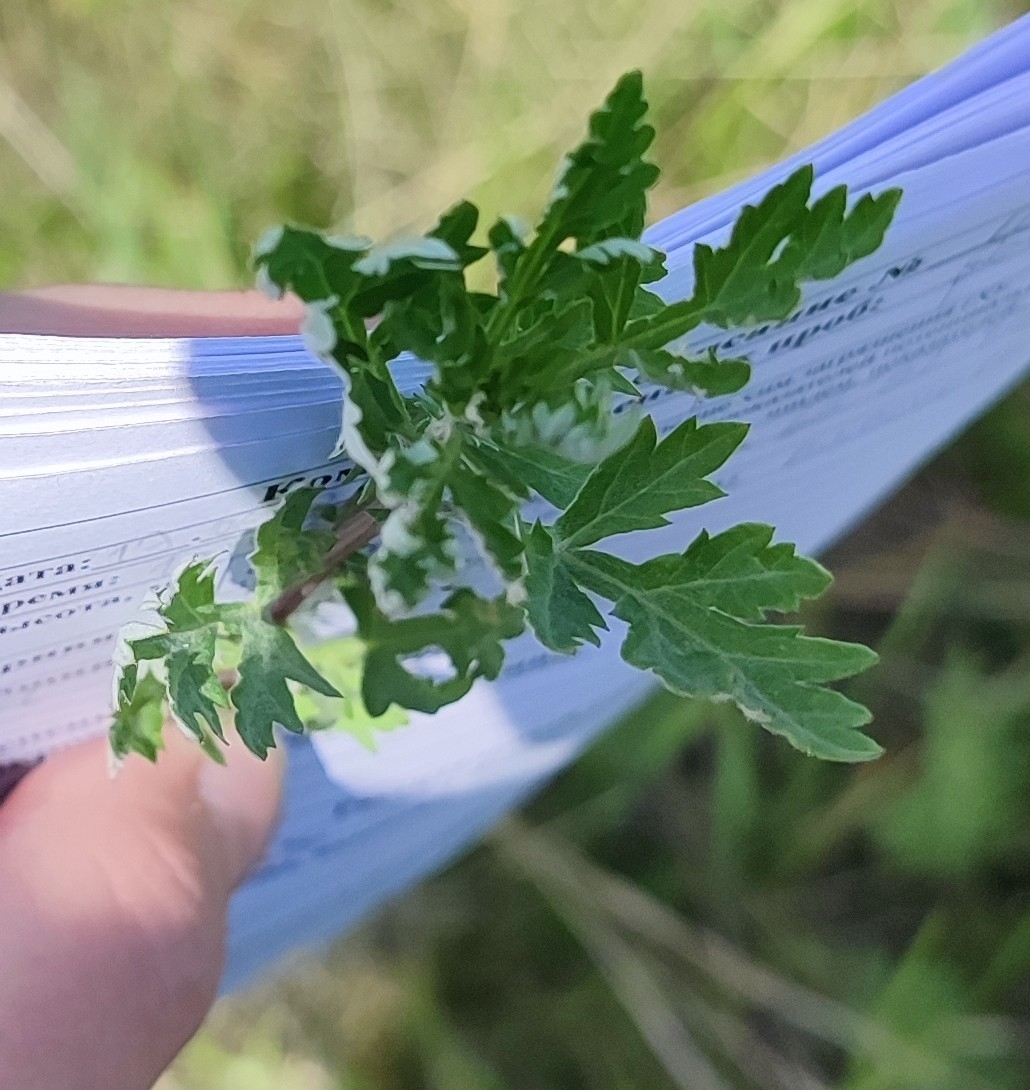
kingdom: Plantae
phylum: Tracheophyta
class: Magnoliopsida
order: Asterales
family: Asteraceae
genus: Artemisia
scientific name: Artemisia vulgaris
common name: Mugwort
